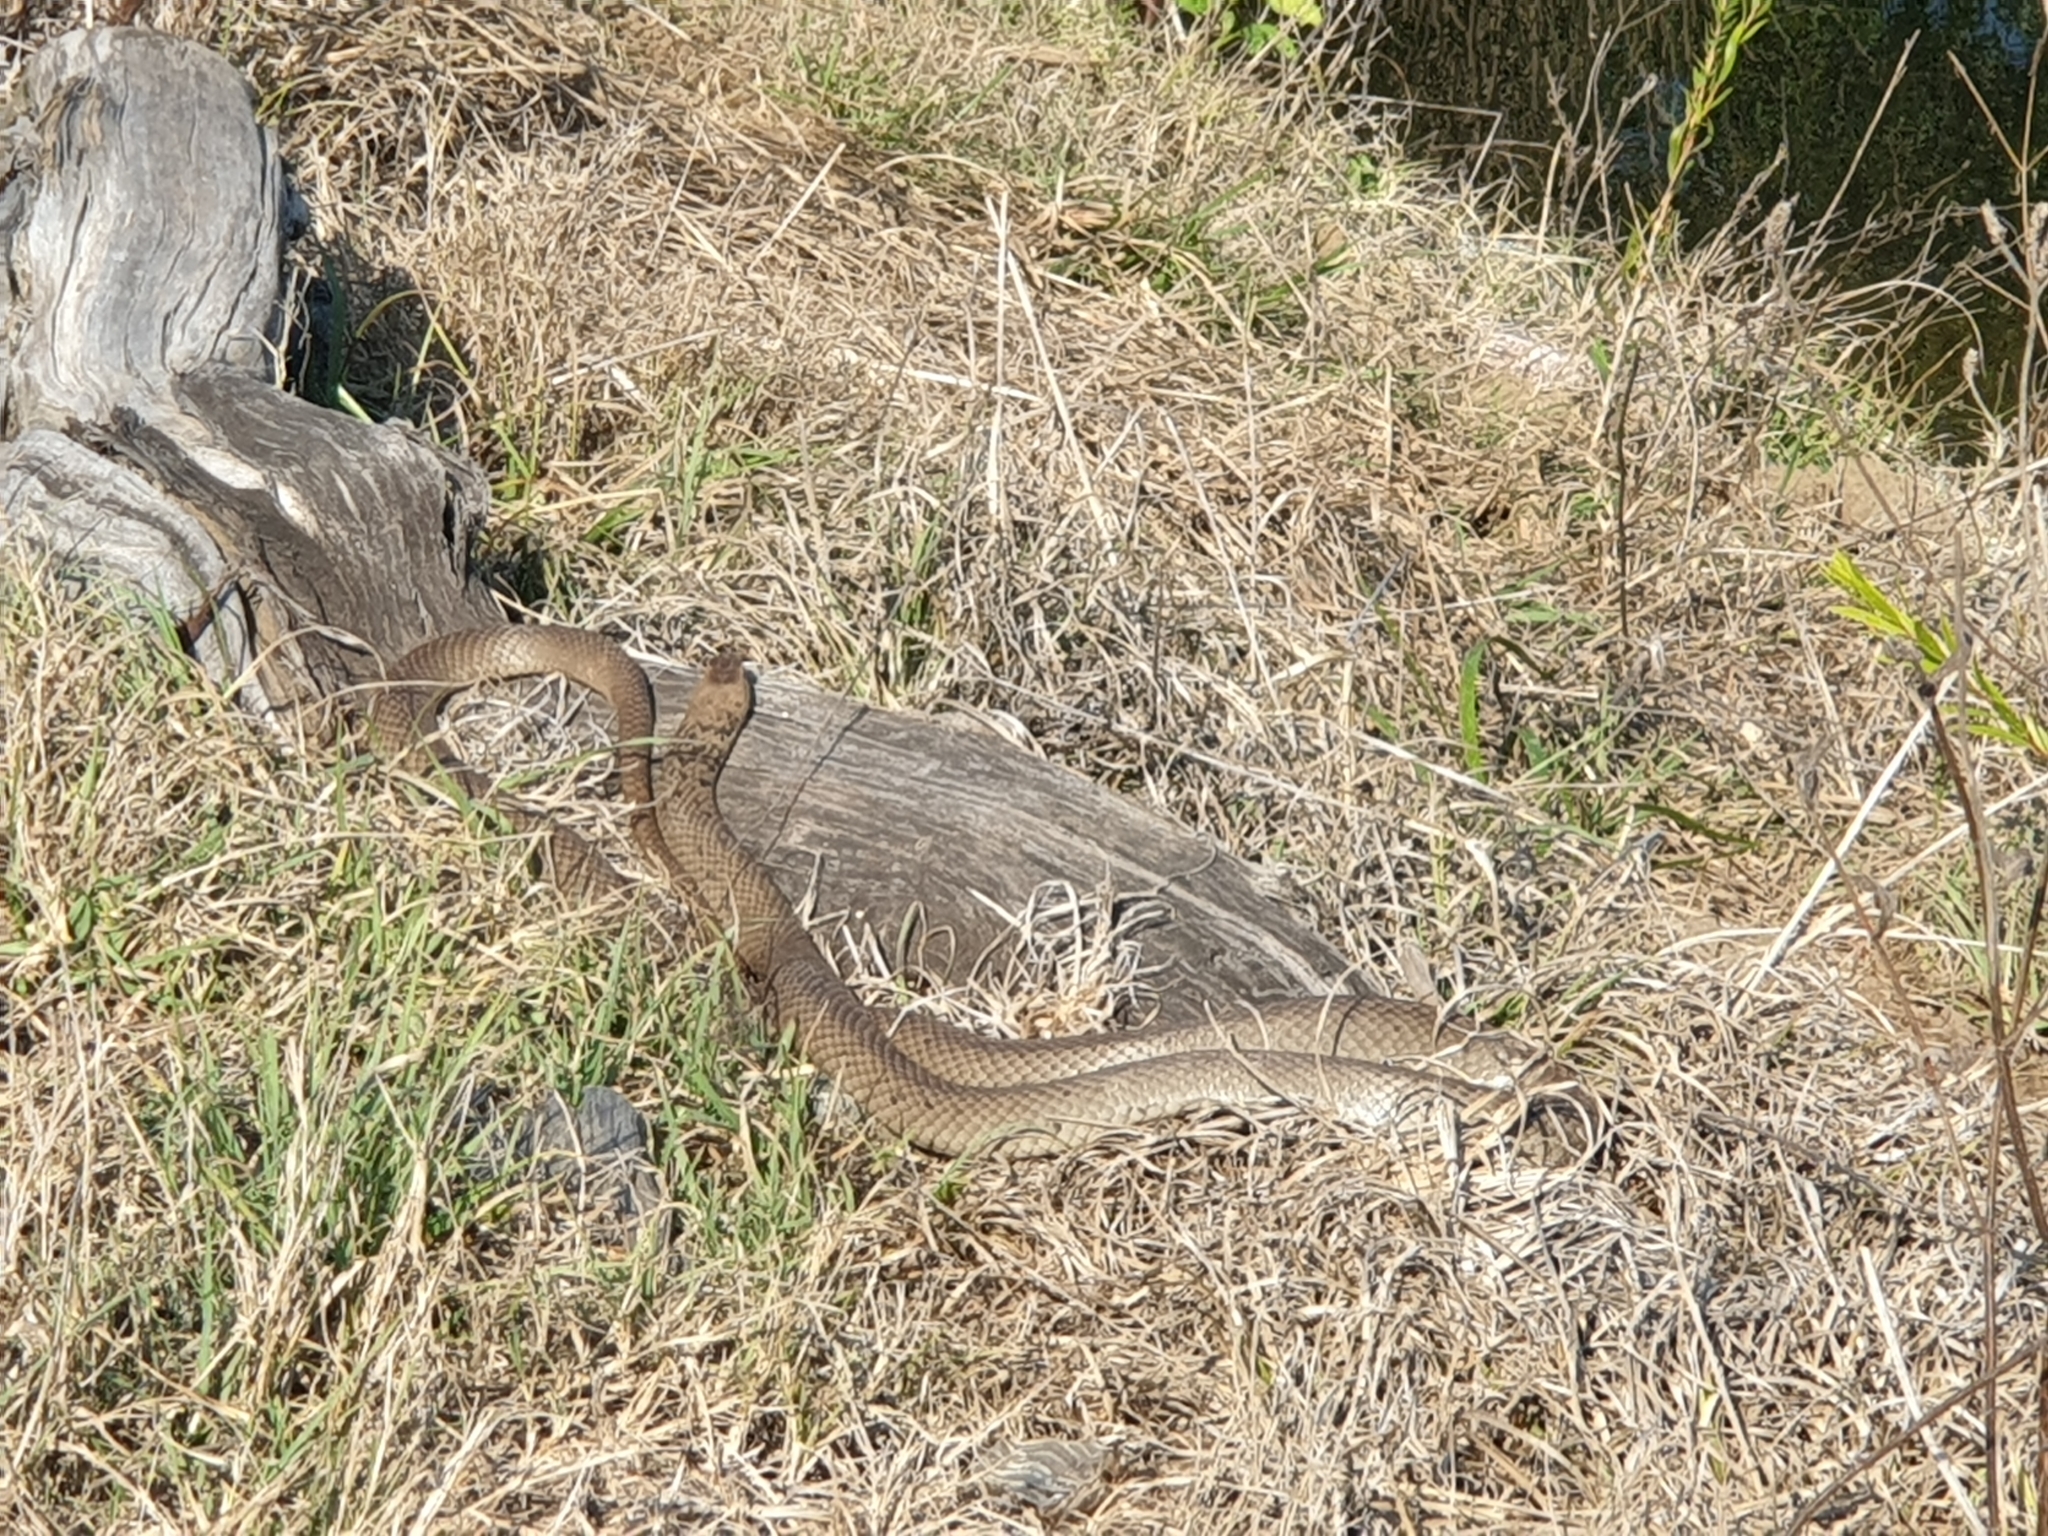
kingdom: Animalia
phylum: Chordata
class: Squamata
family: Elapidae
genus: Pseudonaja
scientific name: Pseudonaja textilis
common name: Eastern brown snake
